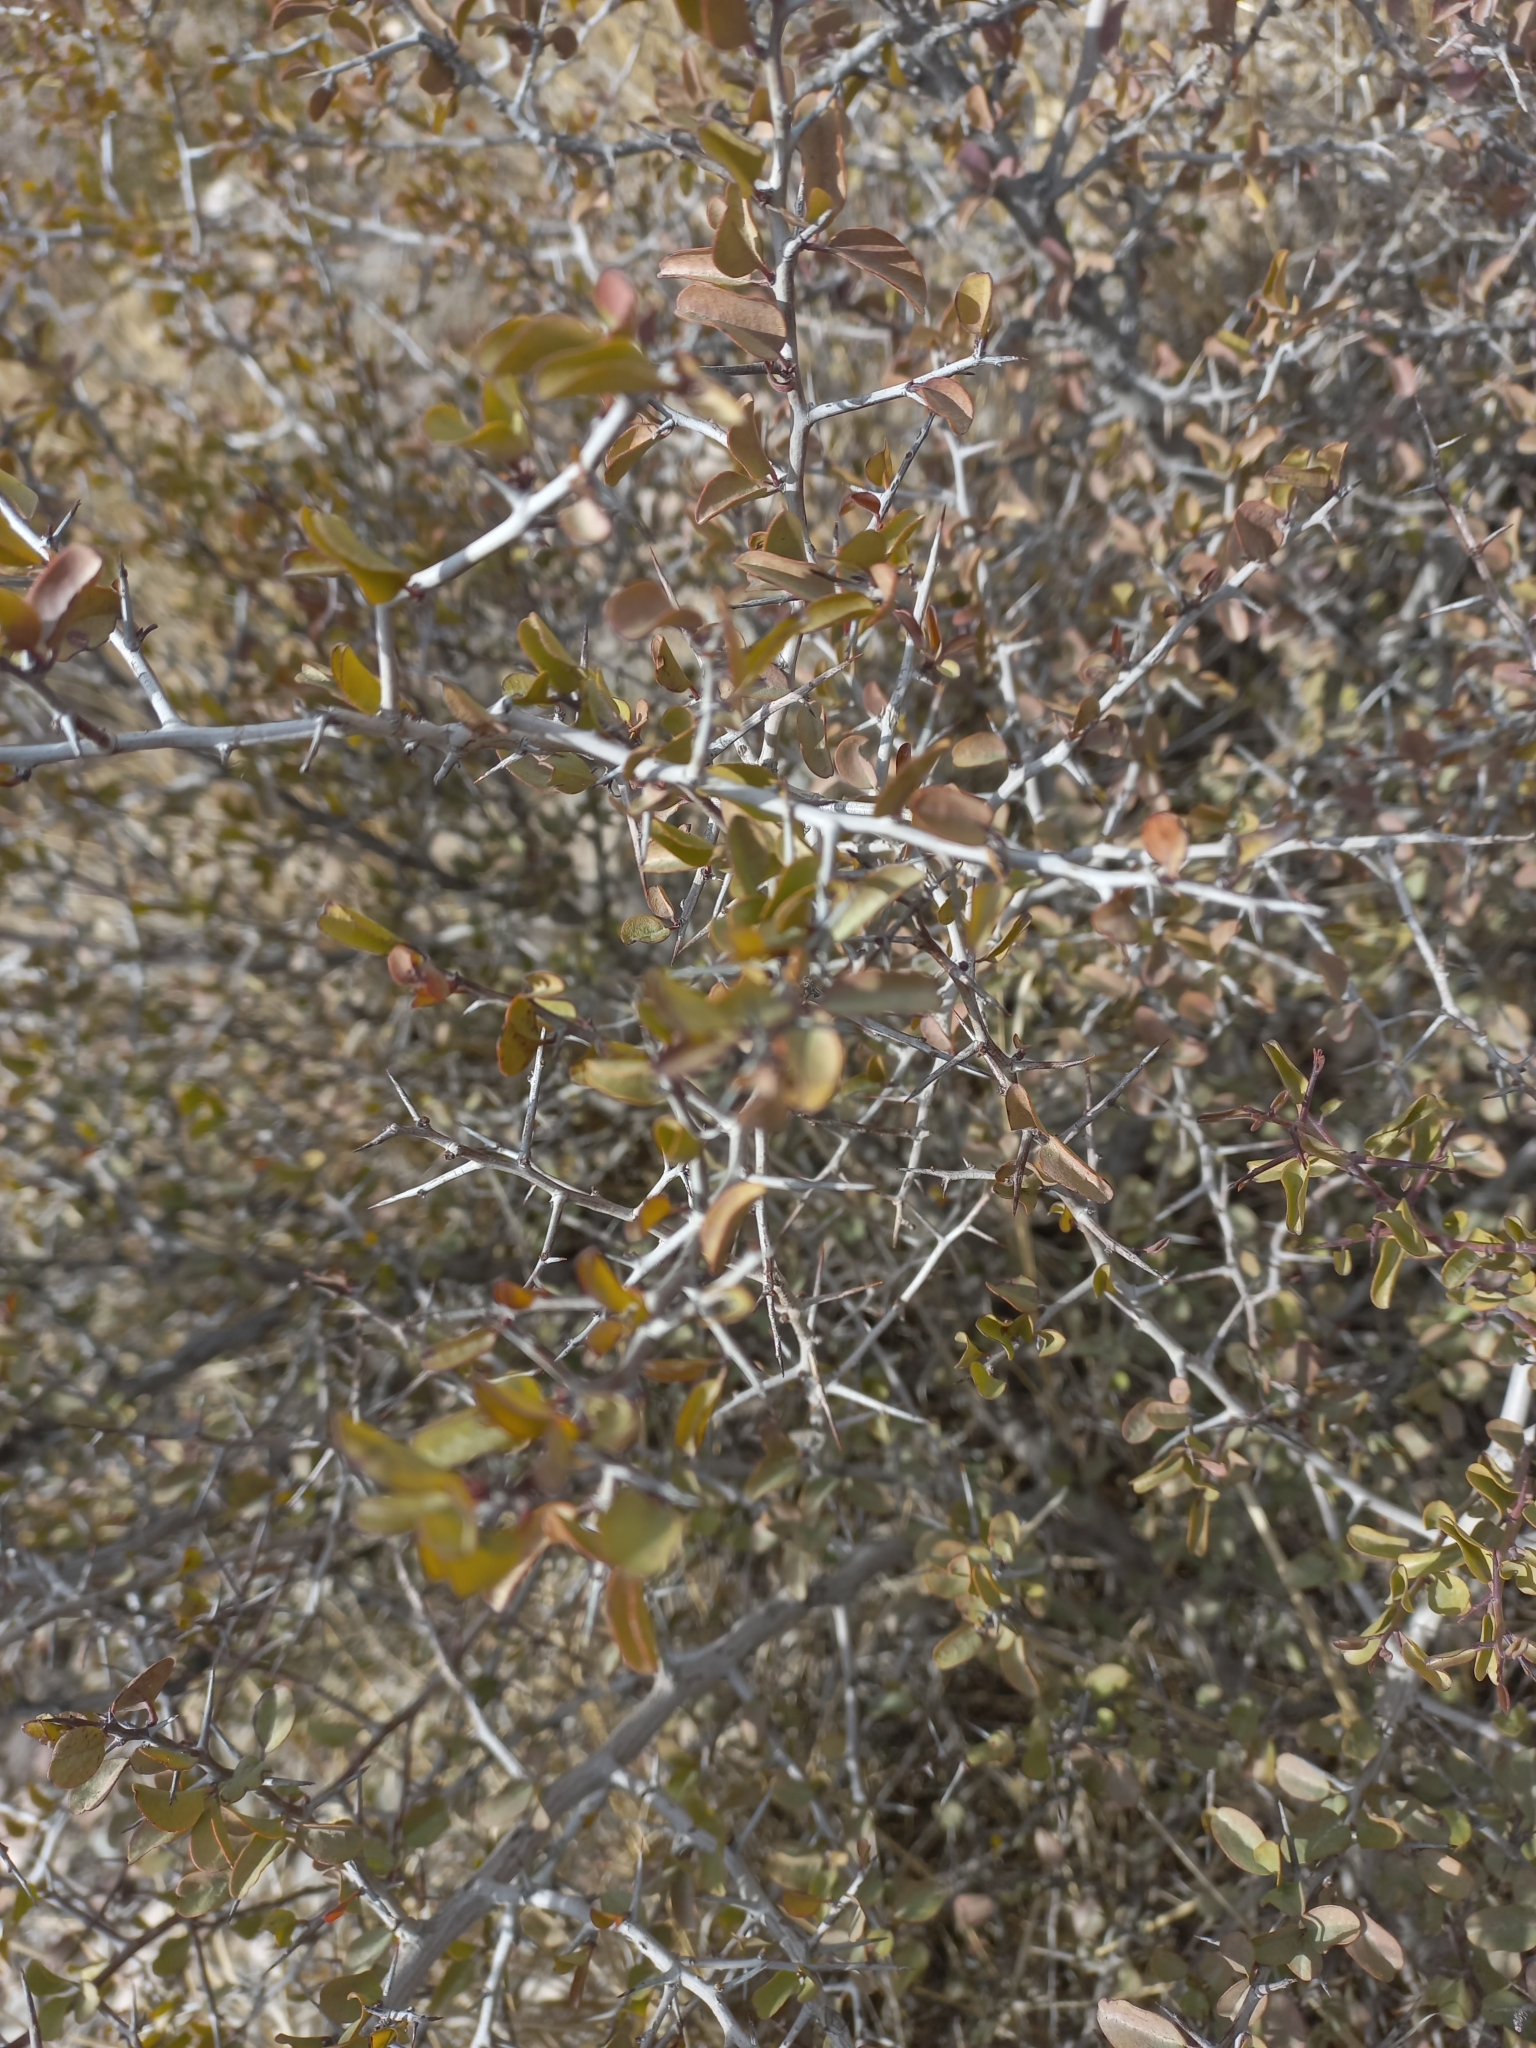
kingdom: Plantae
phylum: Tracheophyta
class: Magnoliopsida
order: Santalales
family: Ximeniaceae
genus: Ximenia
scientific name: Ximenia americana
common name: Tallowwood
